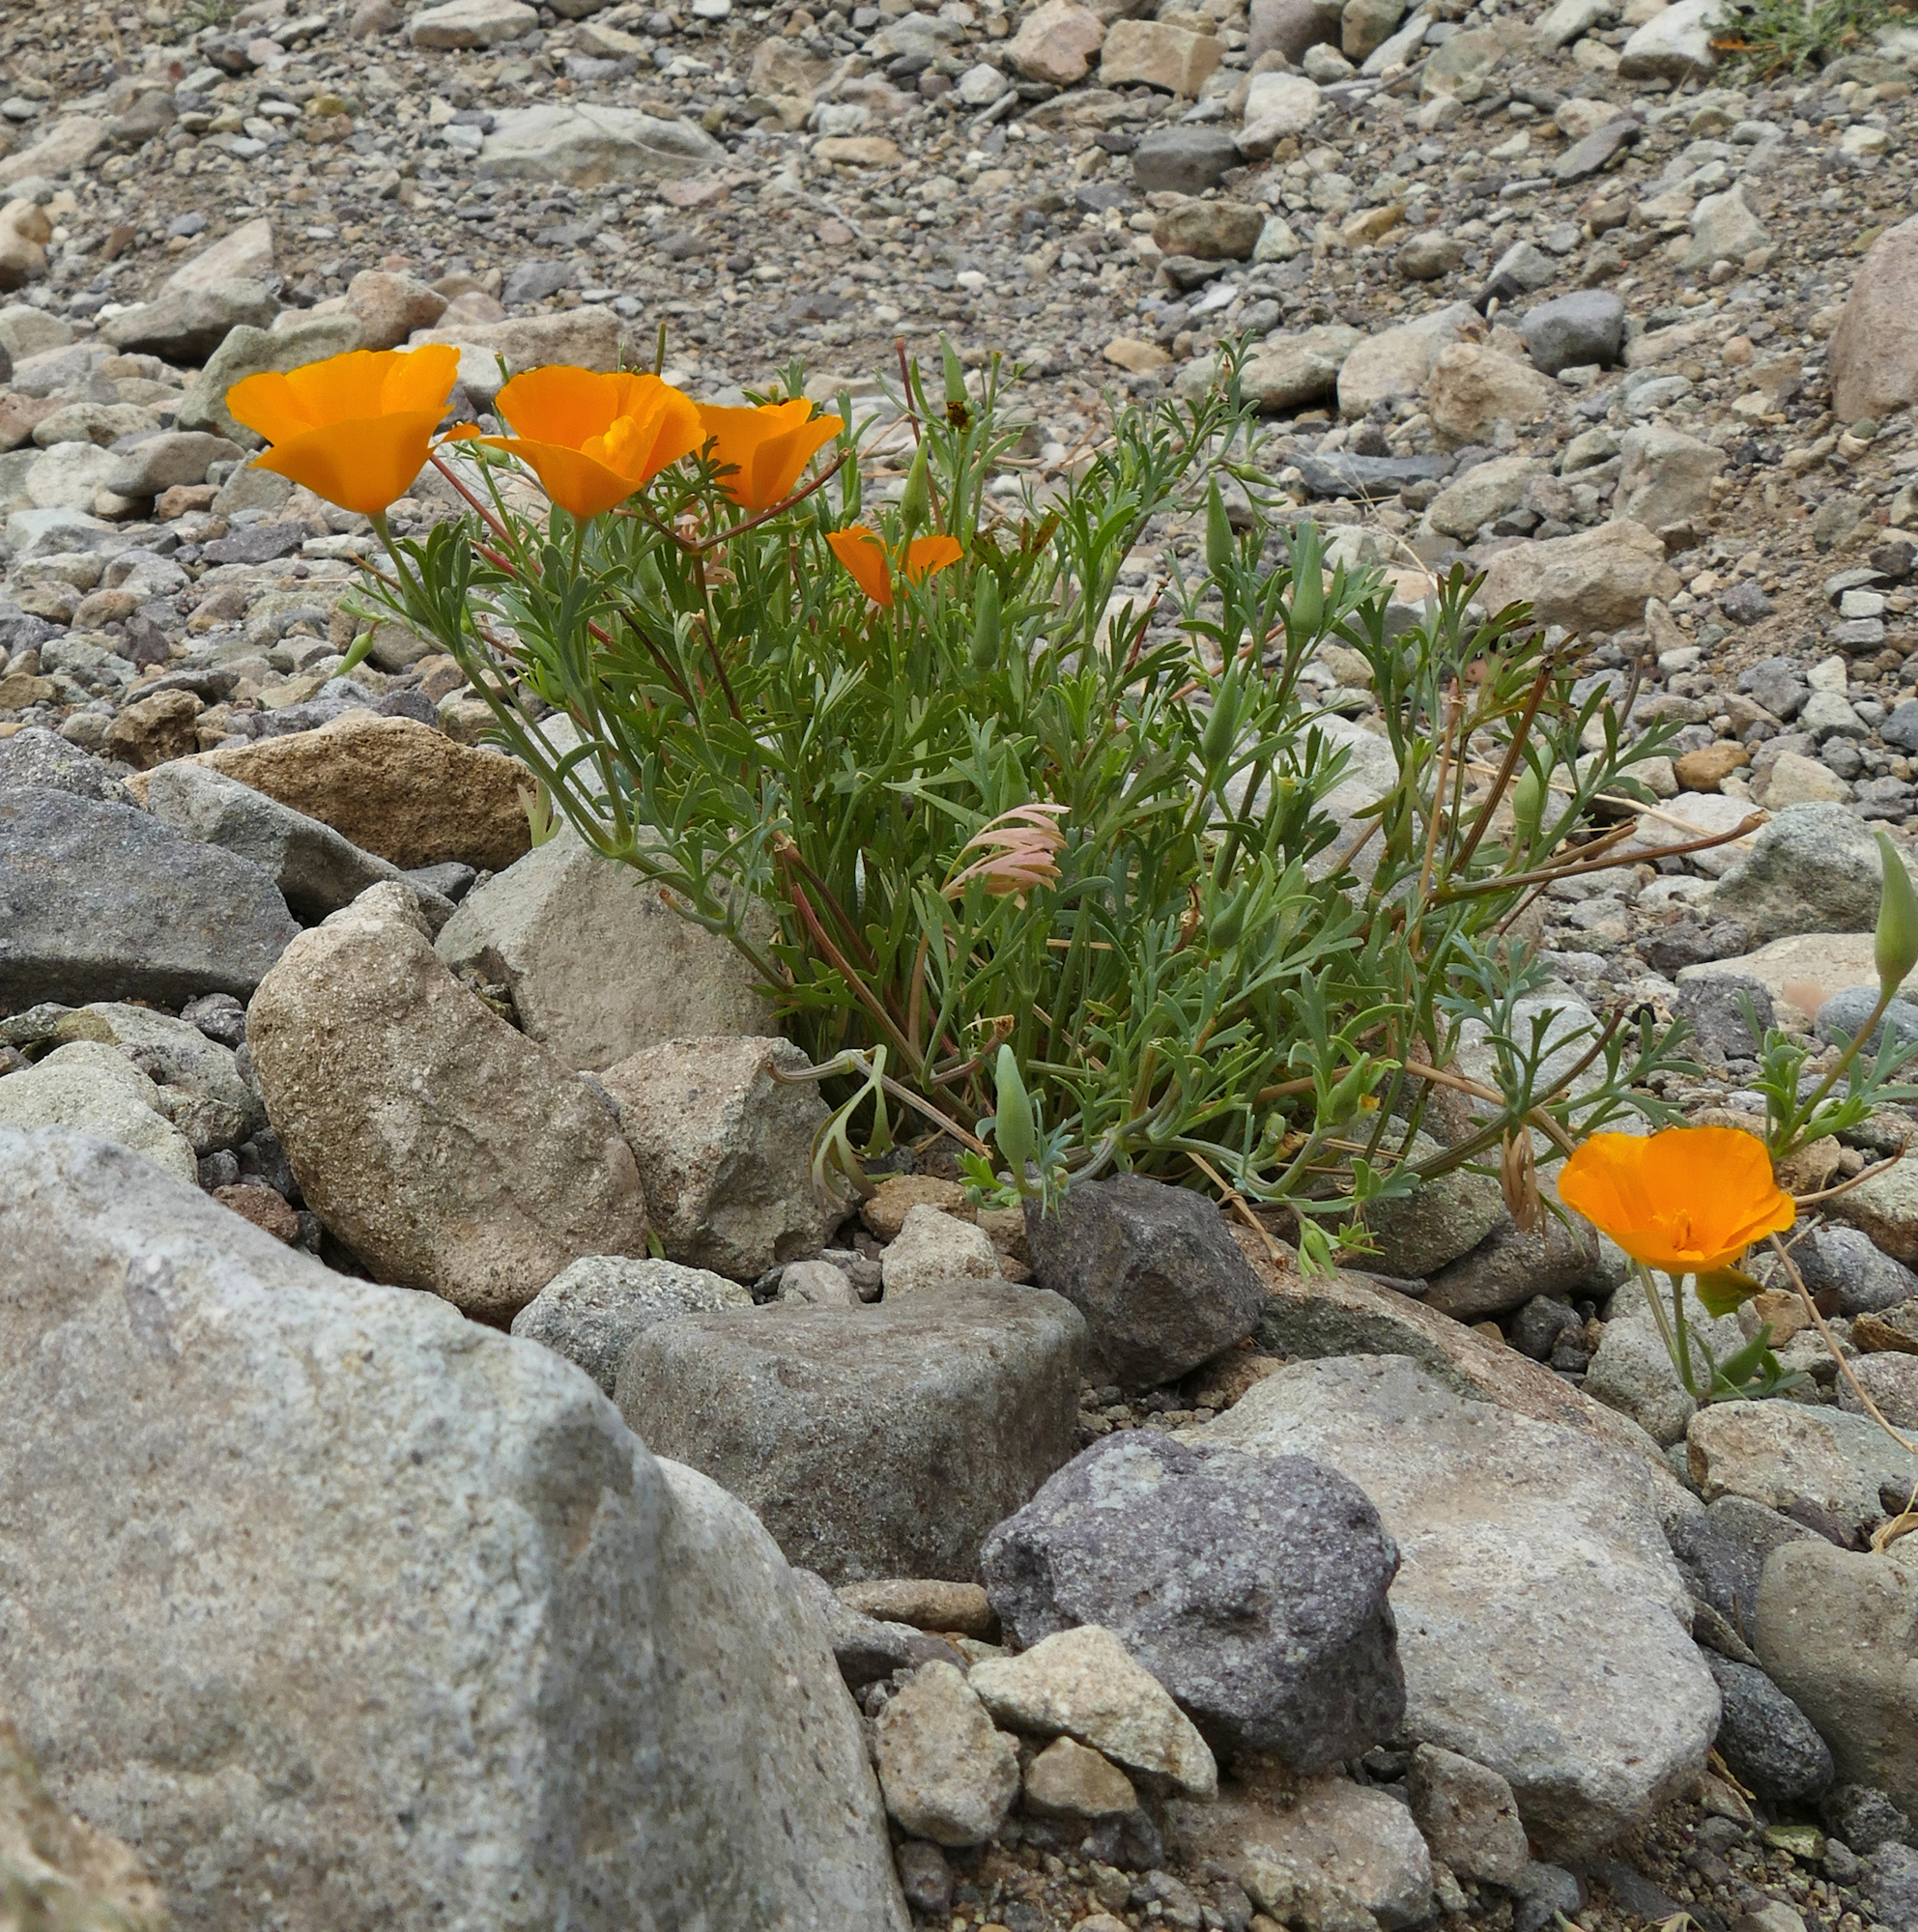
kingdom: Plantae
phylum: Tracheophyta
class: Magnoliopsida
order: Ranunculales
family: Papaveraceae
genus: Eschscholzia
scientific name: Eschscholzia californica
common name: California poppy
